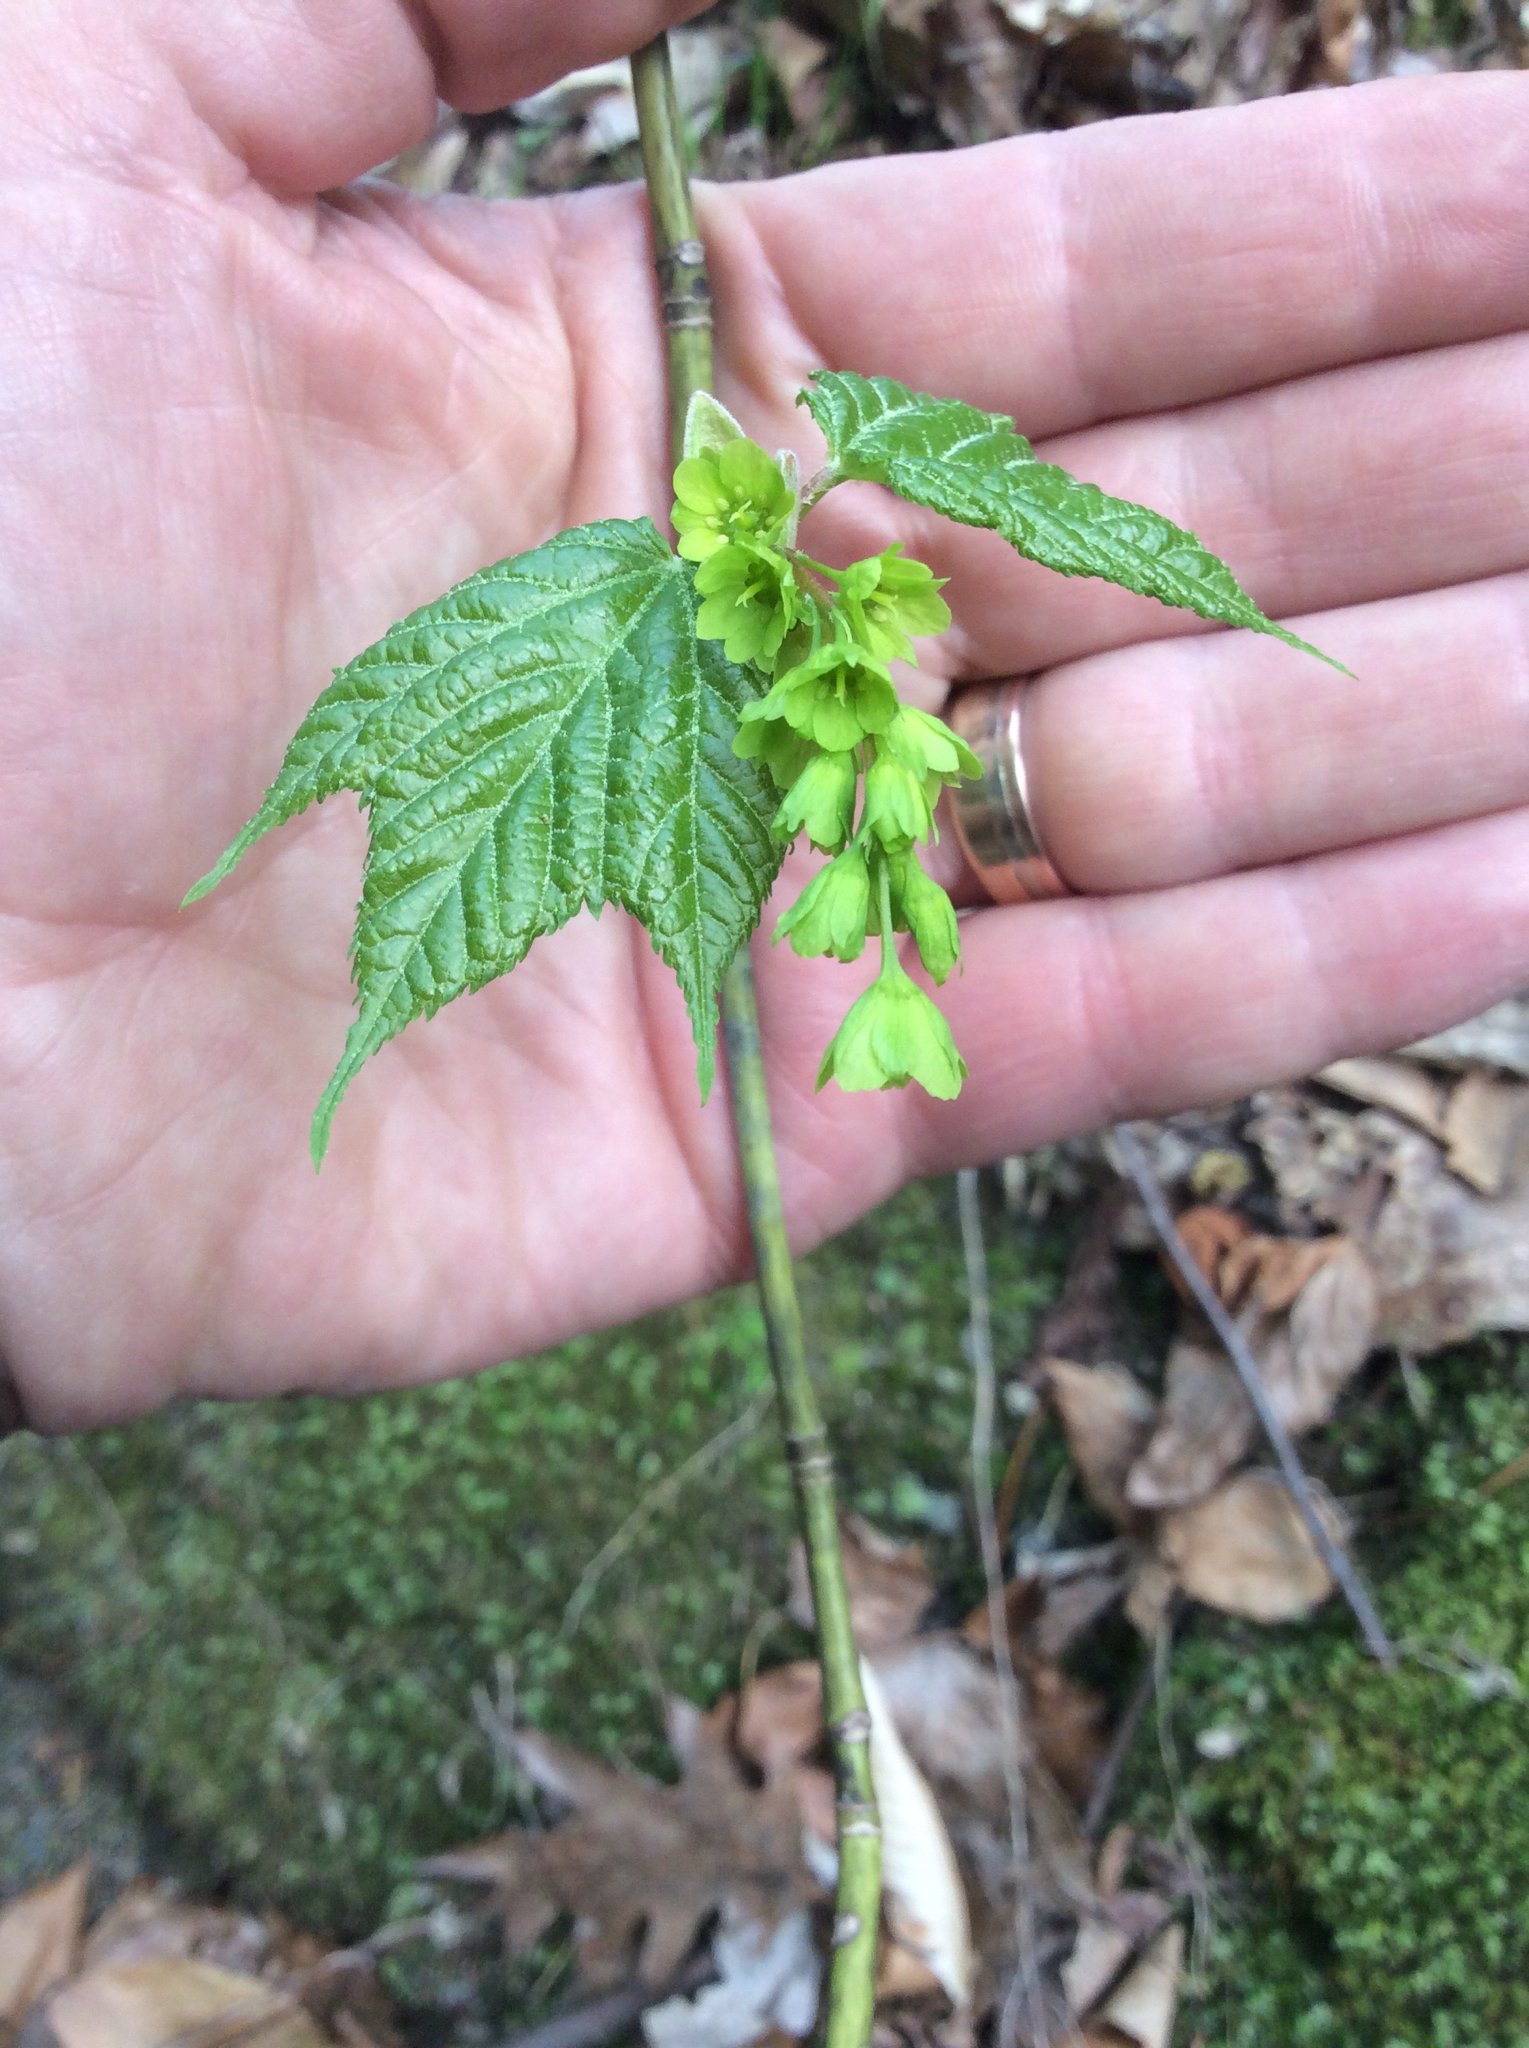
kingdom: Plantae
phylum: Tracheophyta
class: Magnoliopsida
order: Sapindales
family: Sapindaceae
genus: Acer
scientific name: Acer pensylvanicum
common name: Moosewood
